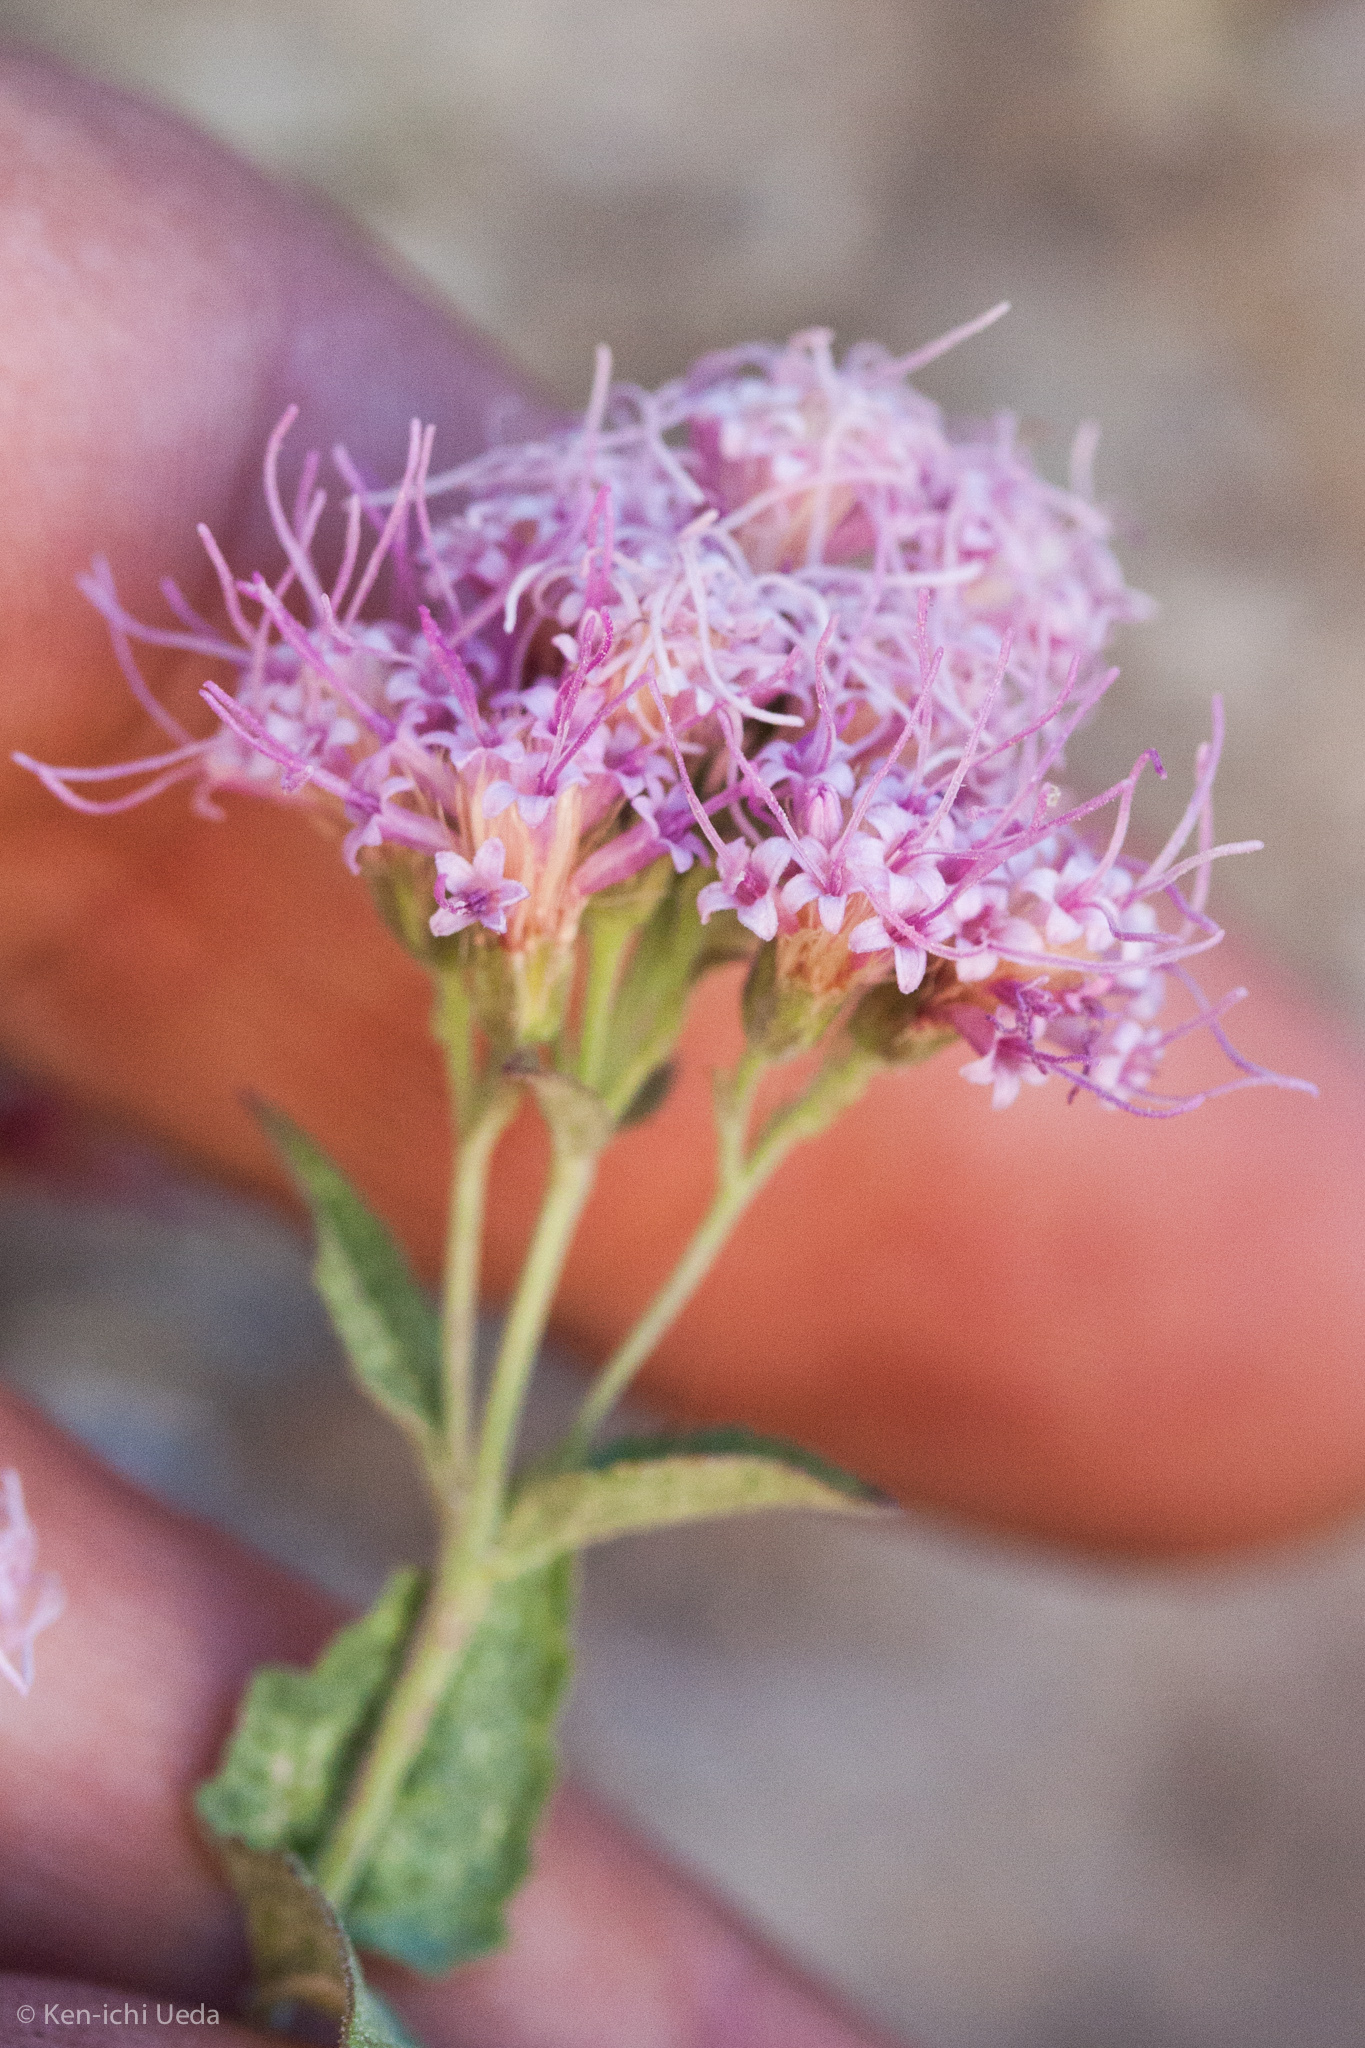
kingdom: Plantae
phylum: Tracheophyta
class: Magnoliopsida
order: Asterales
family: Asteraceae
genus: Ageratina
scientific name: Ageratina occidentalis
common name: Western snakeroot
